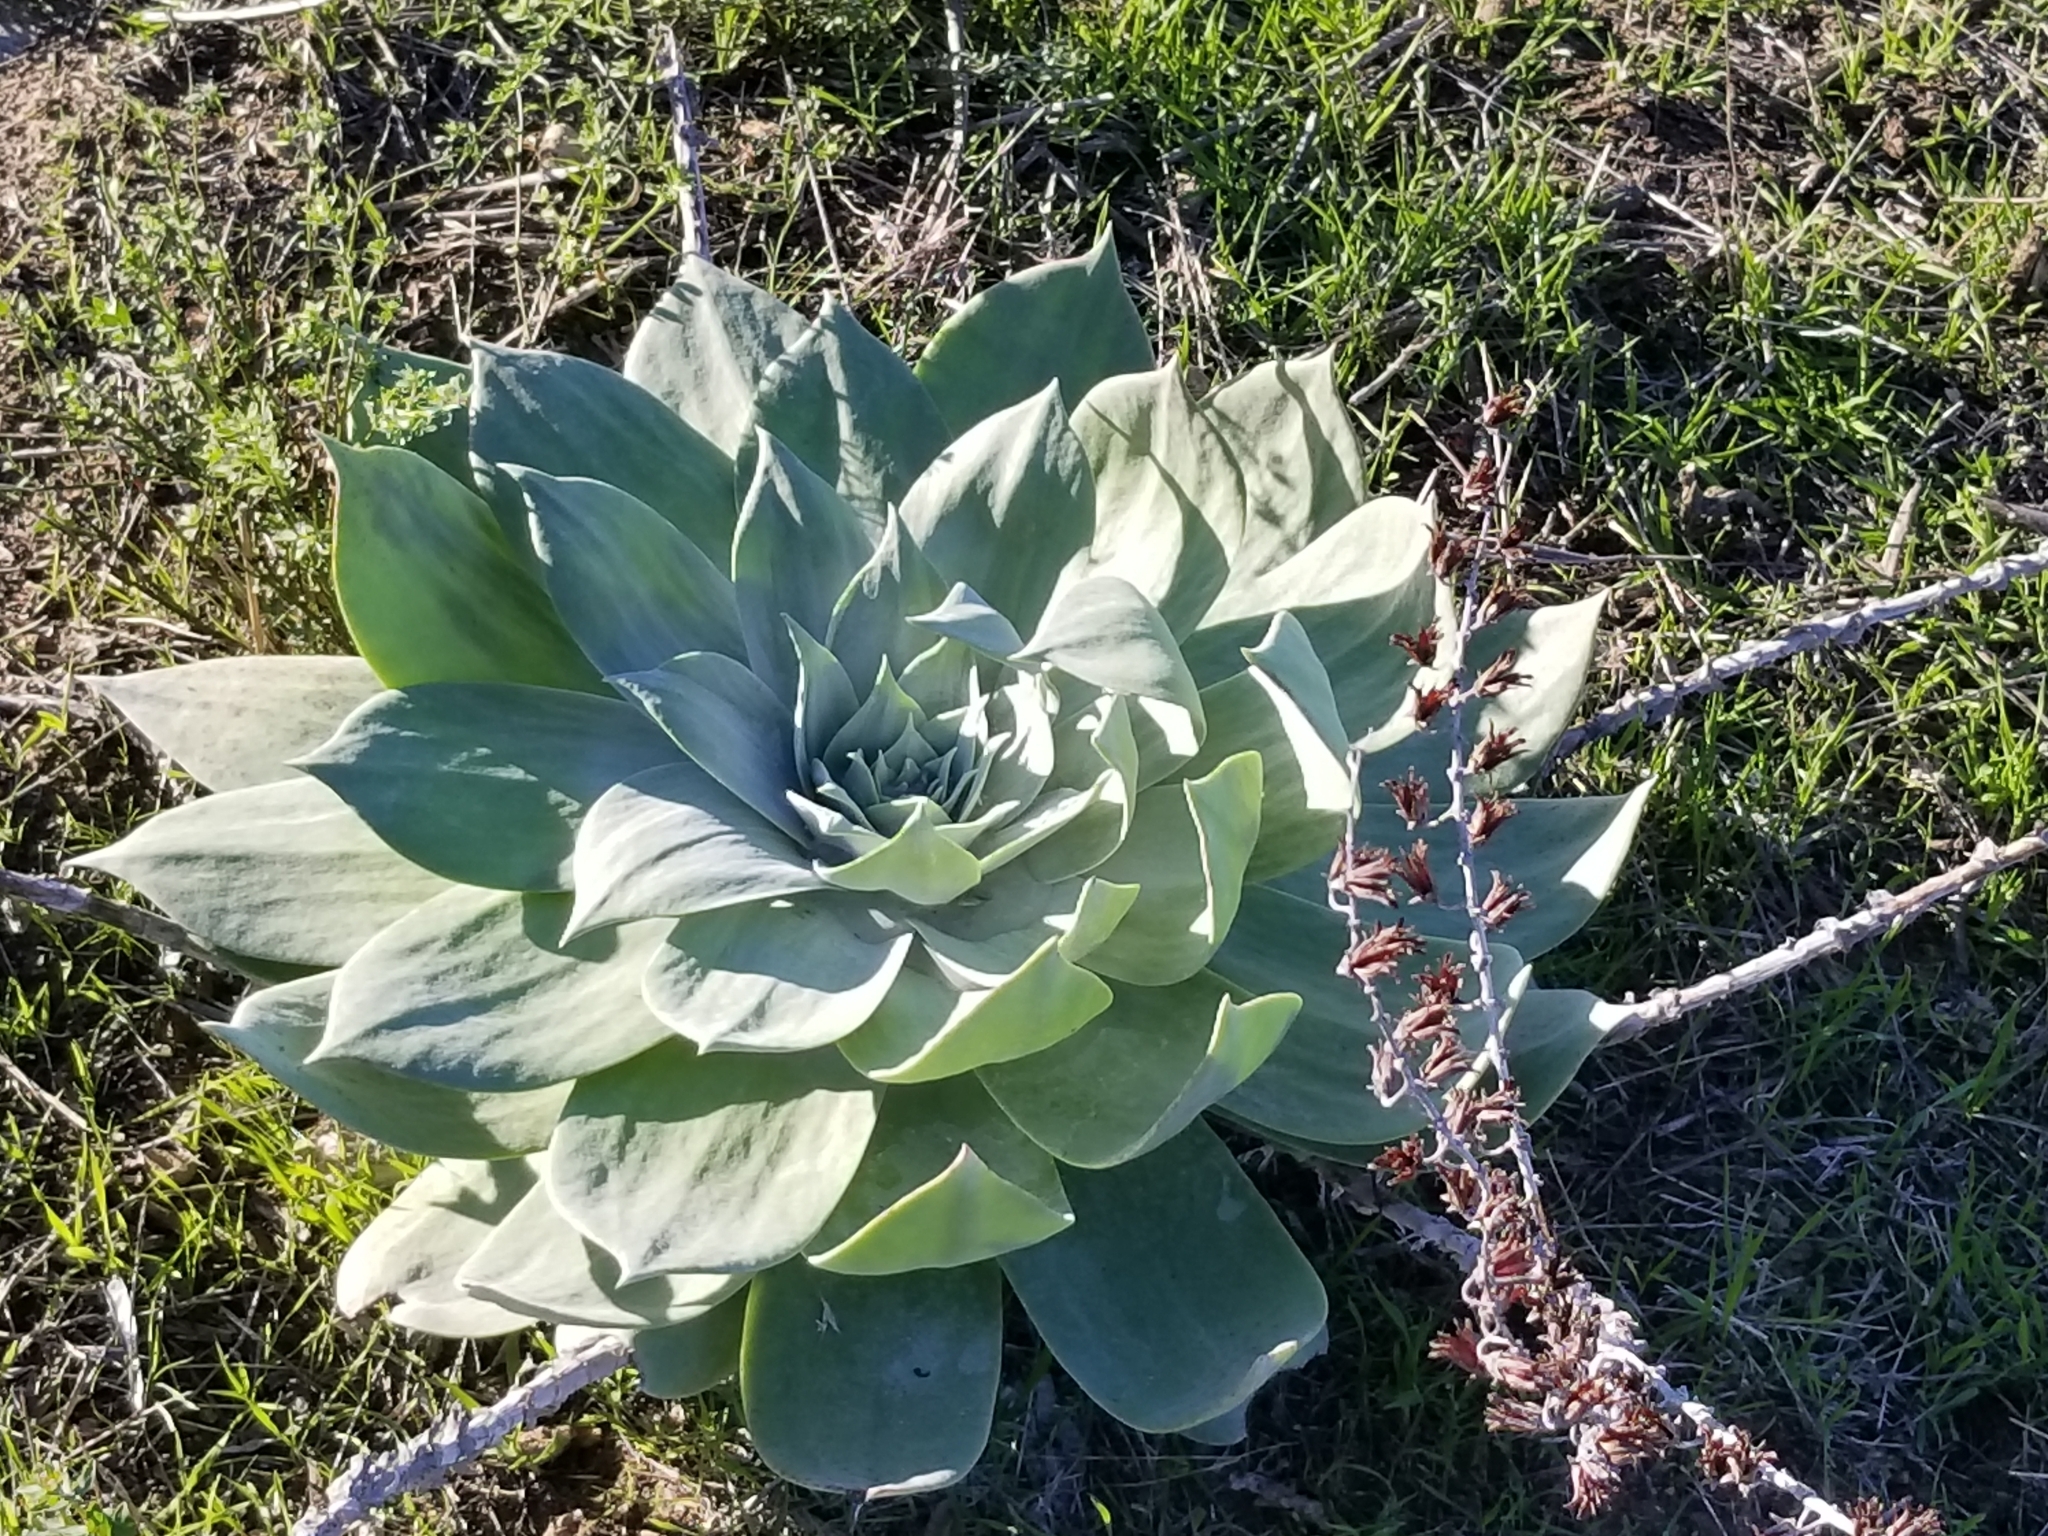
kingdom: Plantae
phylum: Tracheophyta
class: Magnoliopsida
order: Saxifragales
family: Crassulaceae
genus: Dudleya
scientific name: Dudleya pulverulenta
